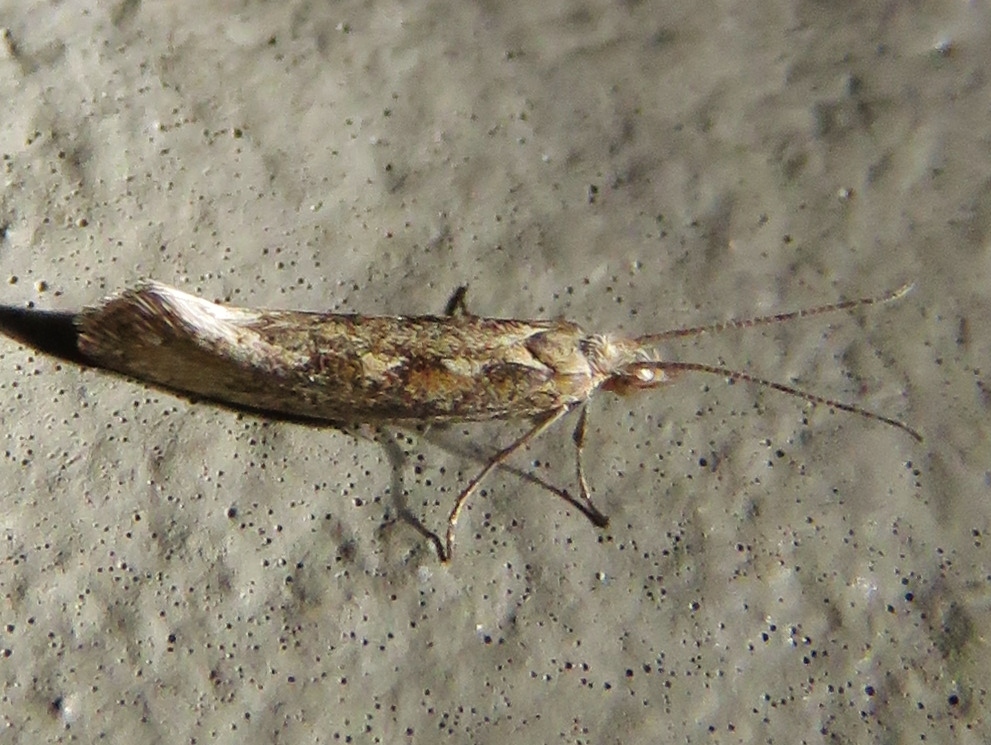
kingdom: Animalia
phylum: Arthropoda
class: Insecta
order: Lepidoptera
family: Plutellidae
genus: Plutella
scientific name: Plutella xylostella
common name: Diamond-back moth
